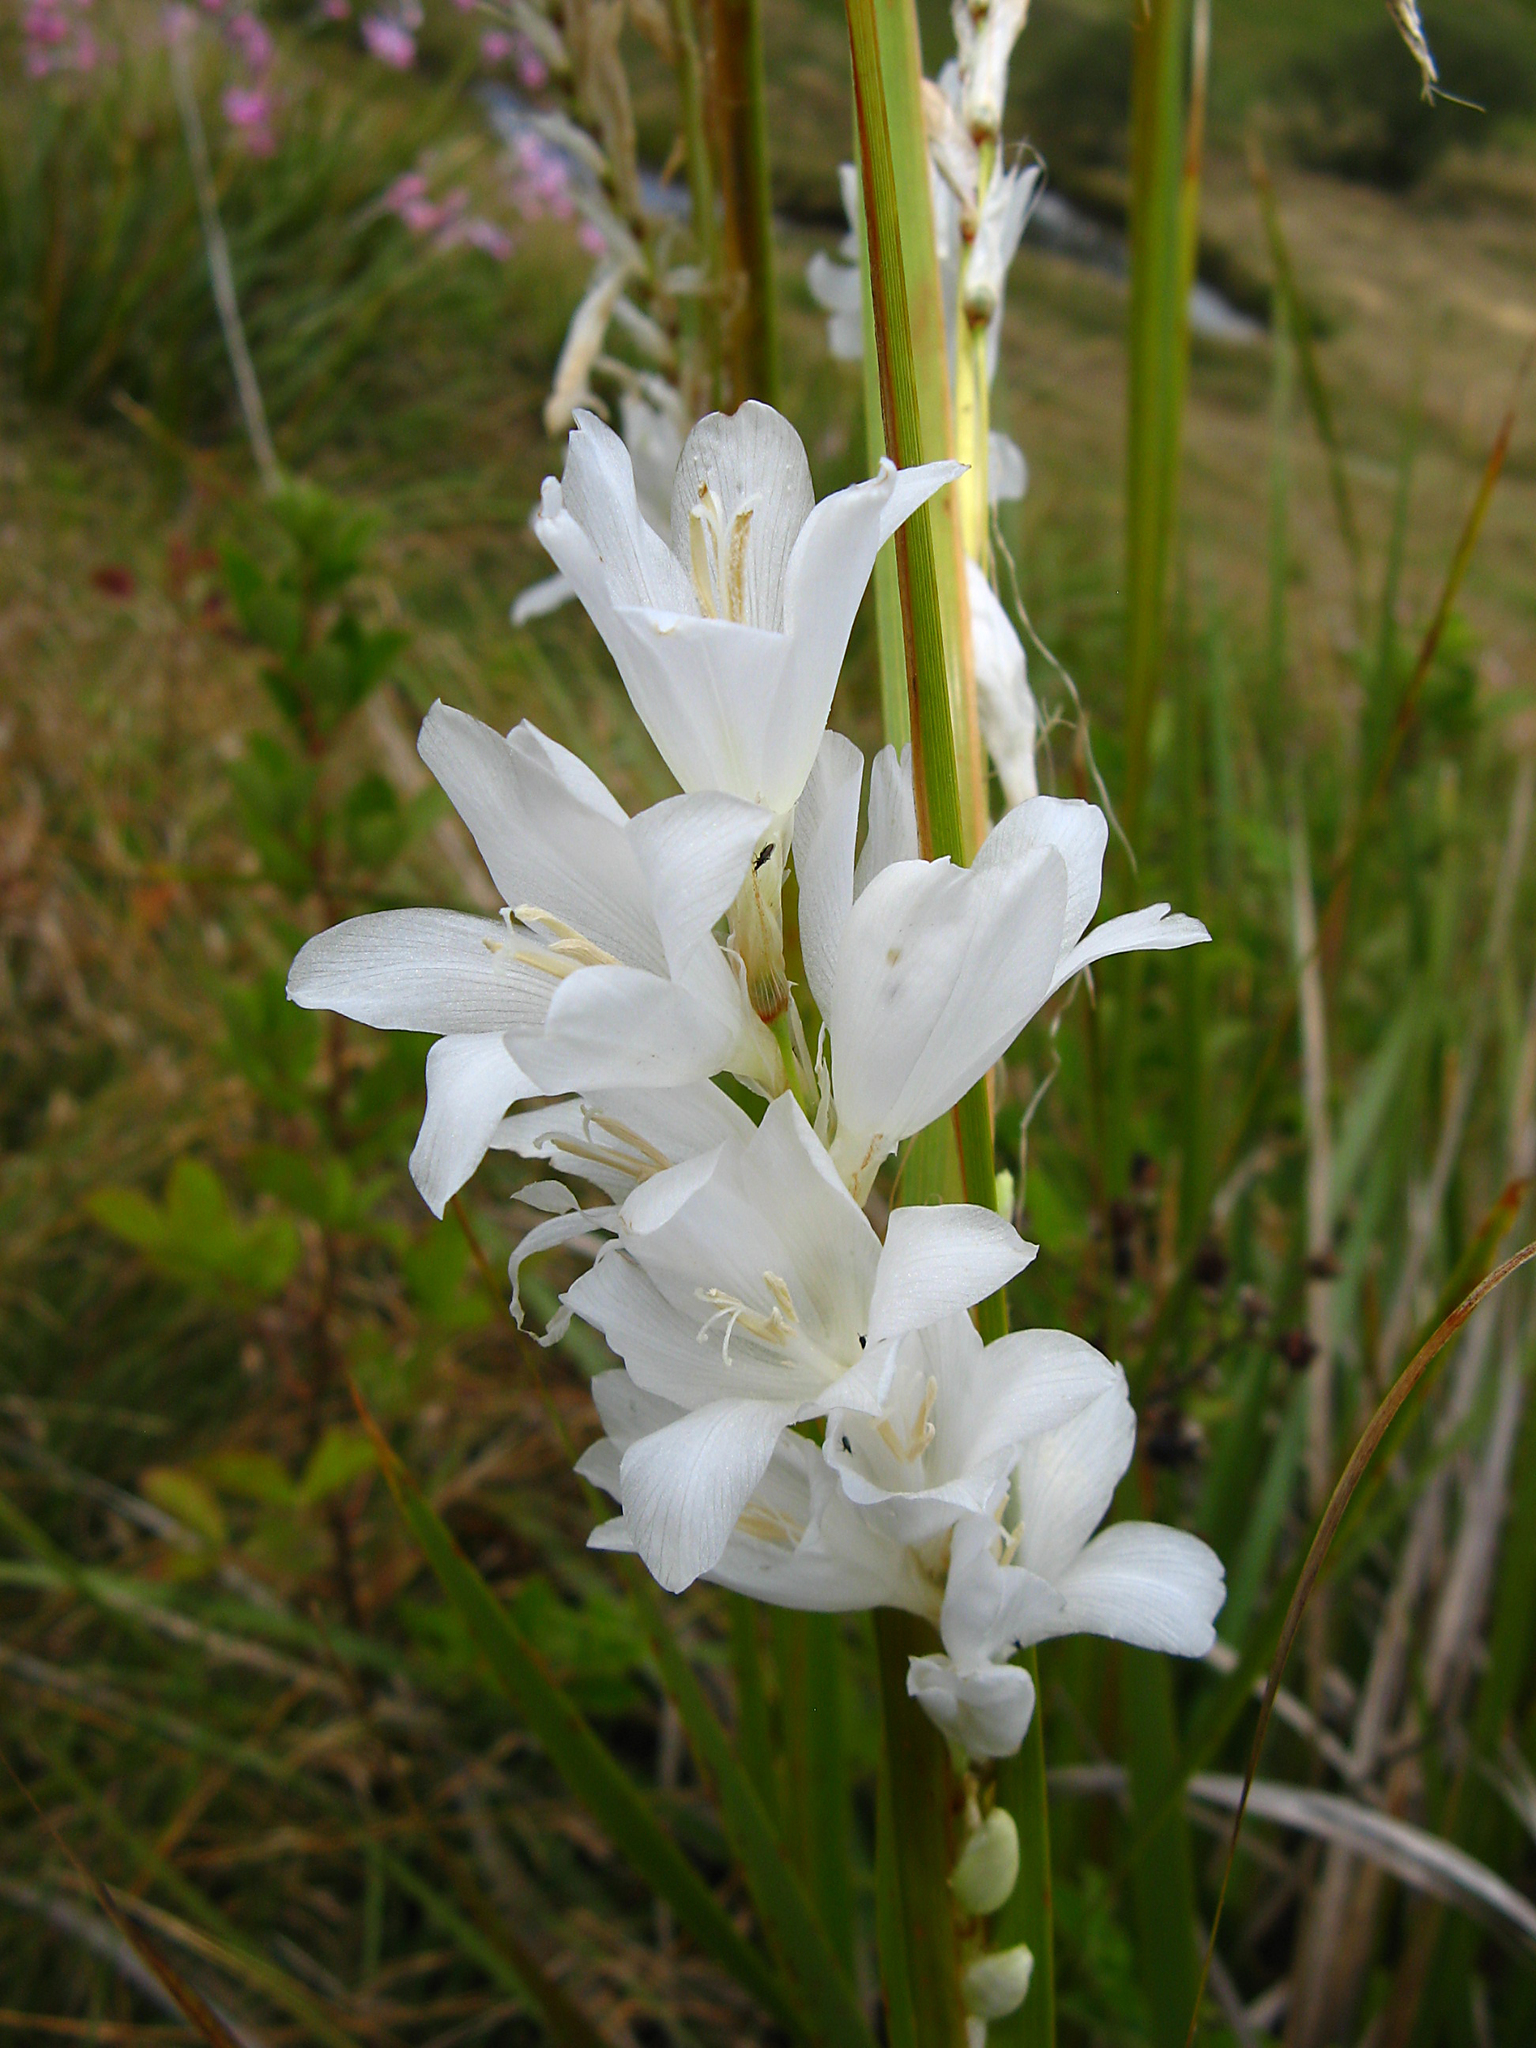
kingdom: Plantae
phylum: Tracheophyta
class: Liliopsida
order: Asparagales
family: Iridaceae
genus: Dierama
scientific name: Dierama argyreum
